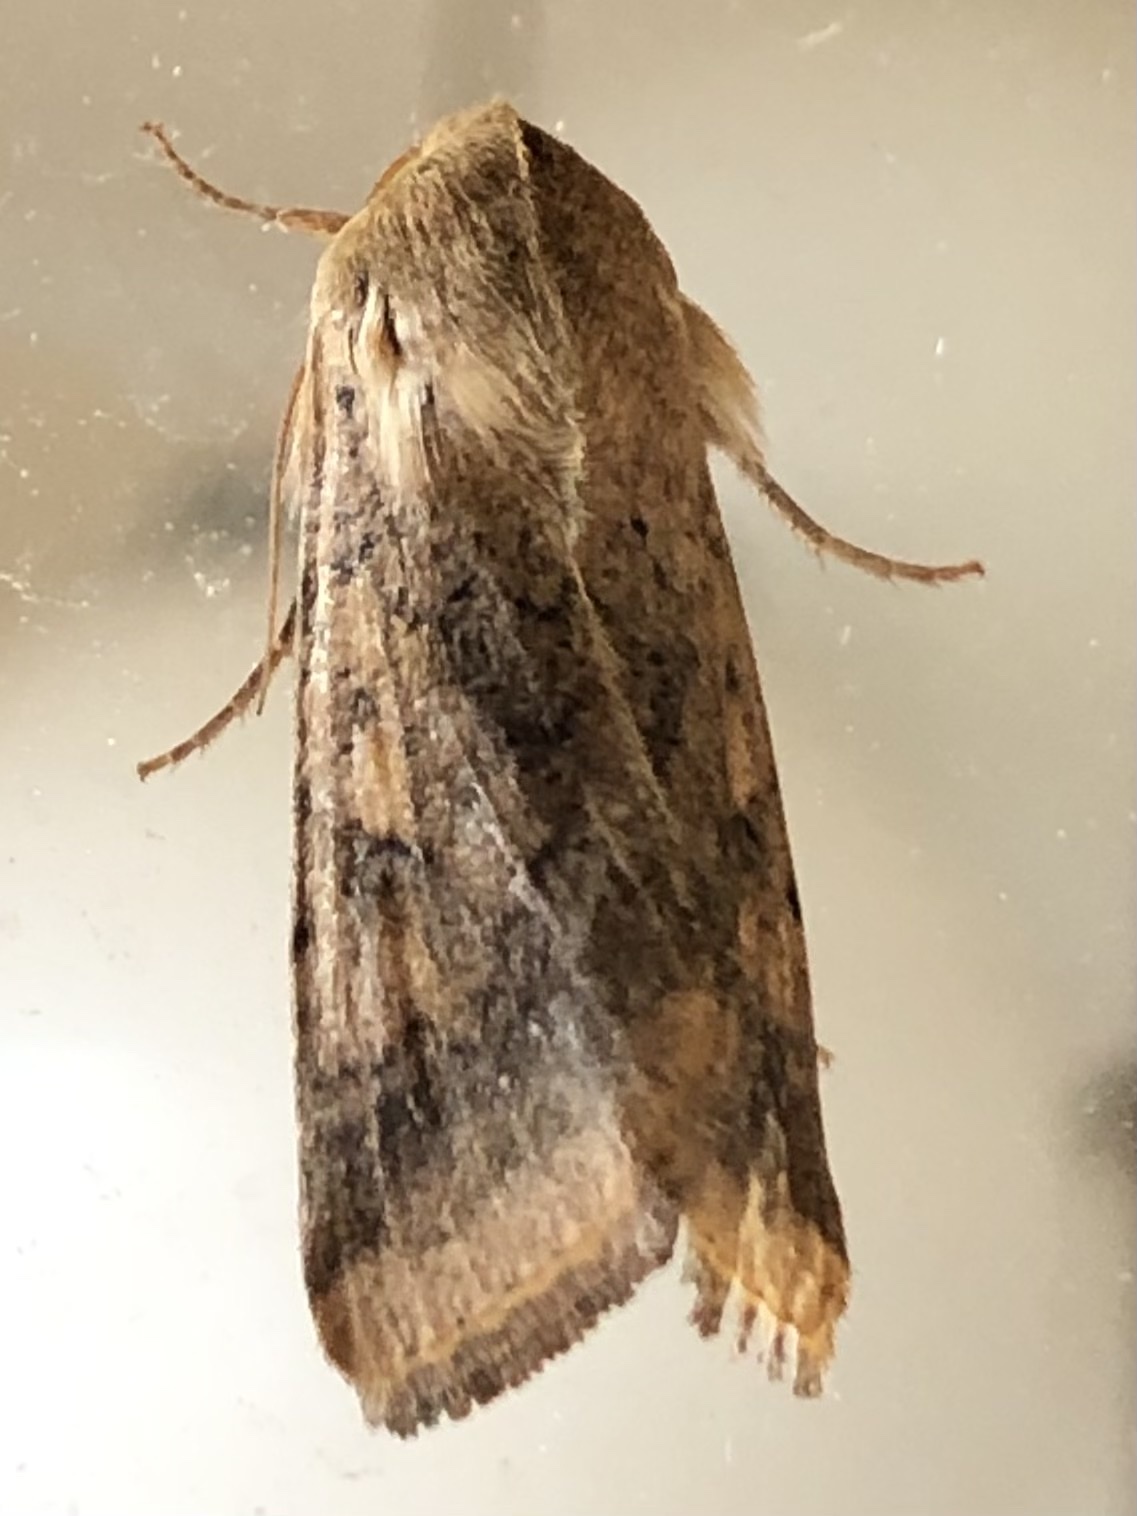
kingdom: Animalia
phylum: Arthropoda
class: Insecta
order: Lepidoptera
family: Noctuidae
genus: Helicoverpa
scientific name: Helicoverpa armigera
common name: Cotton bollworm
